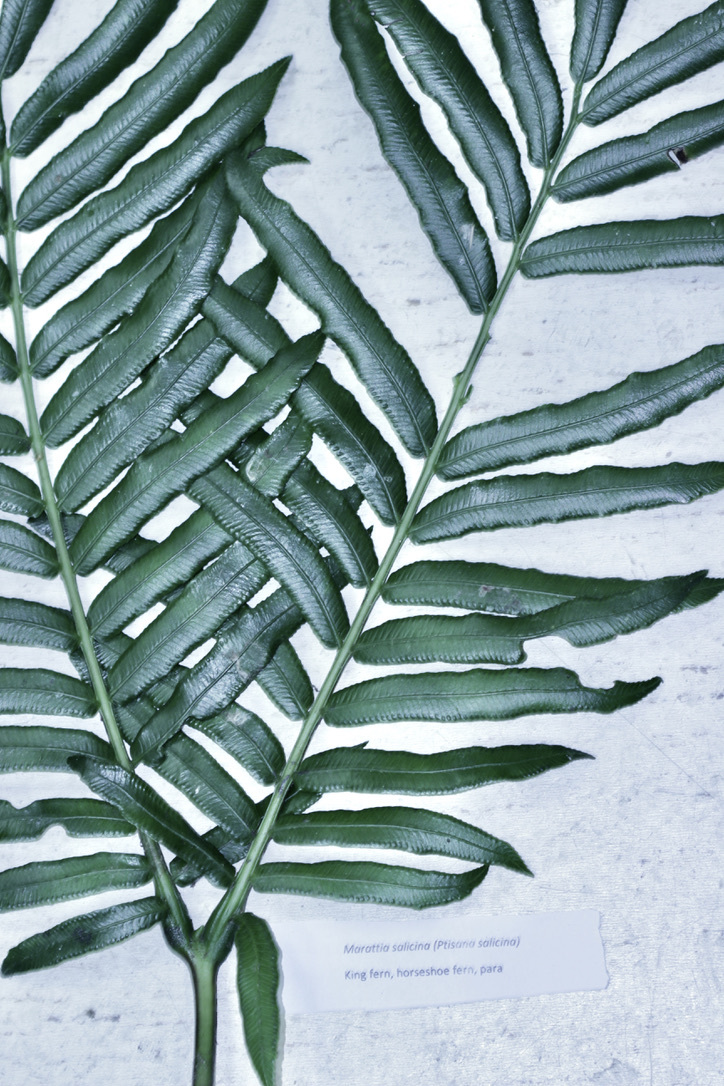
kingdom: Plantae
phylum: Tracheophyta
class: Polypodiopsida
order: Marattiales
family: Marattiaceae
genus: Ptisana
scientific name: Ptisana salicina
